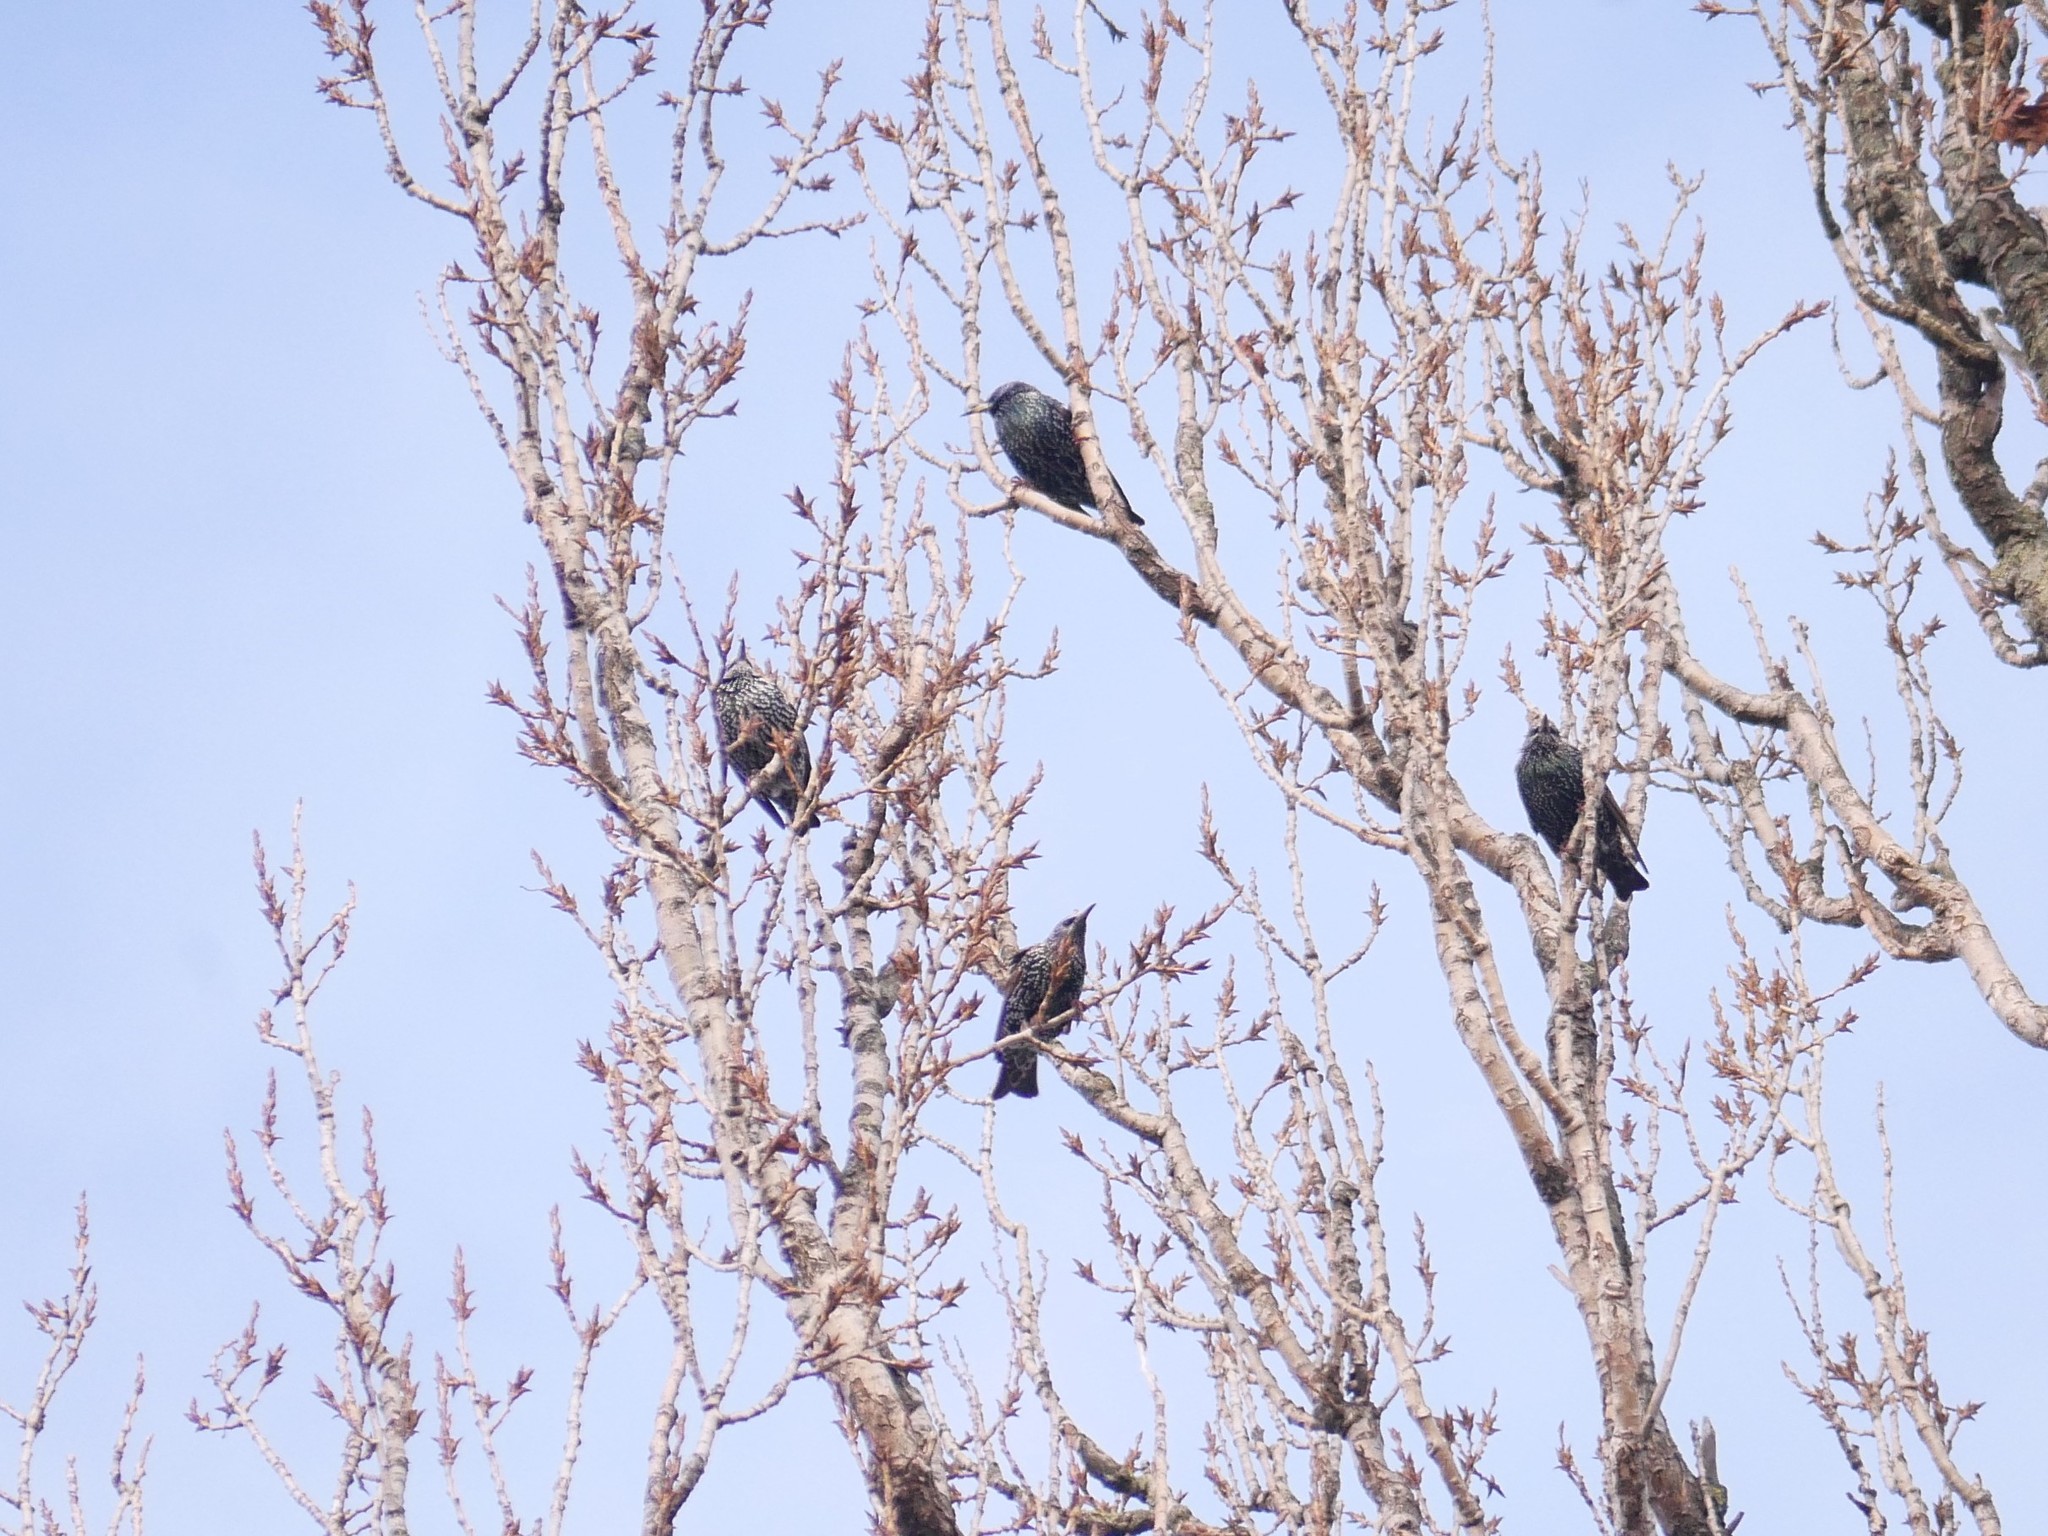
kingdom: Animalia
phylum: Chordata
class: Aves
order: Passeriformes
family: Sturnidae
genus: Sturnus
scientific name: Sturnus vulgaris
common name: Common starling
